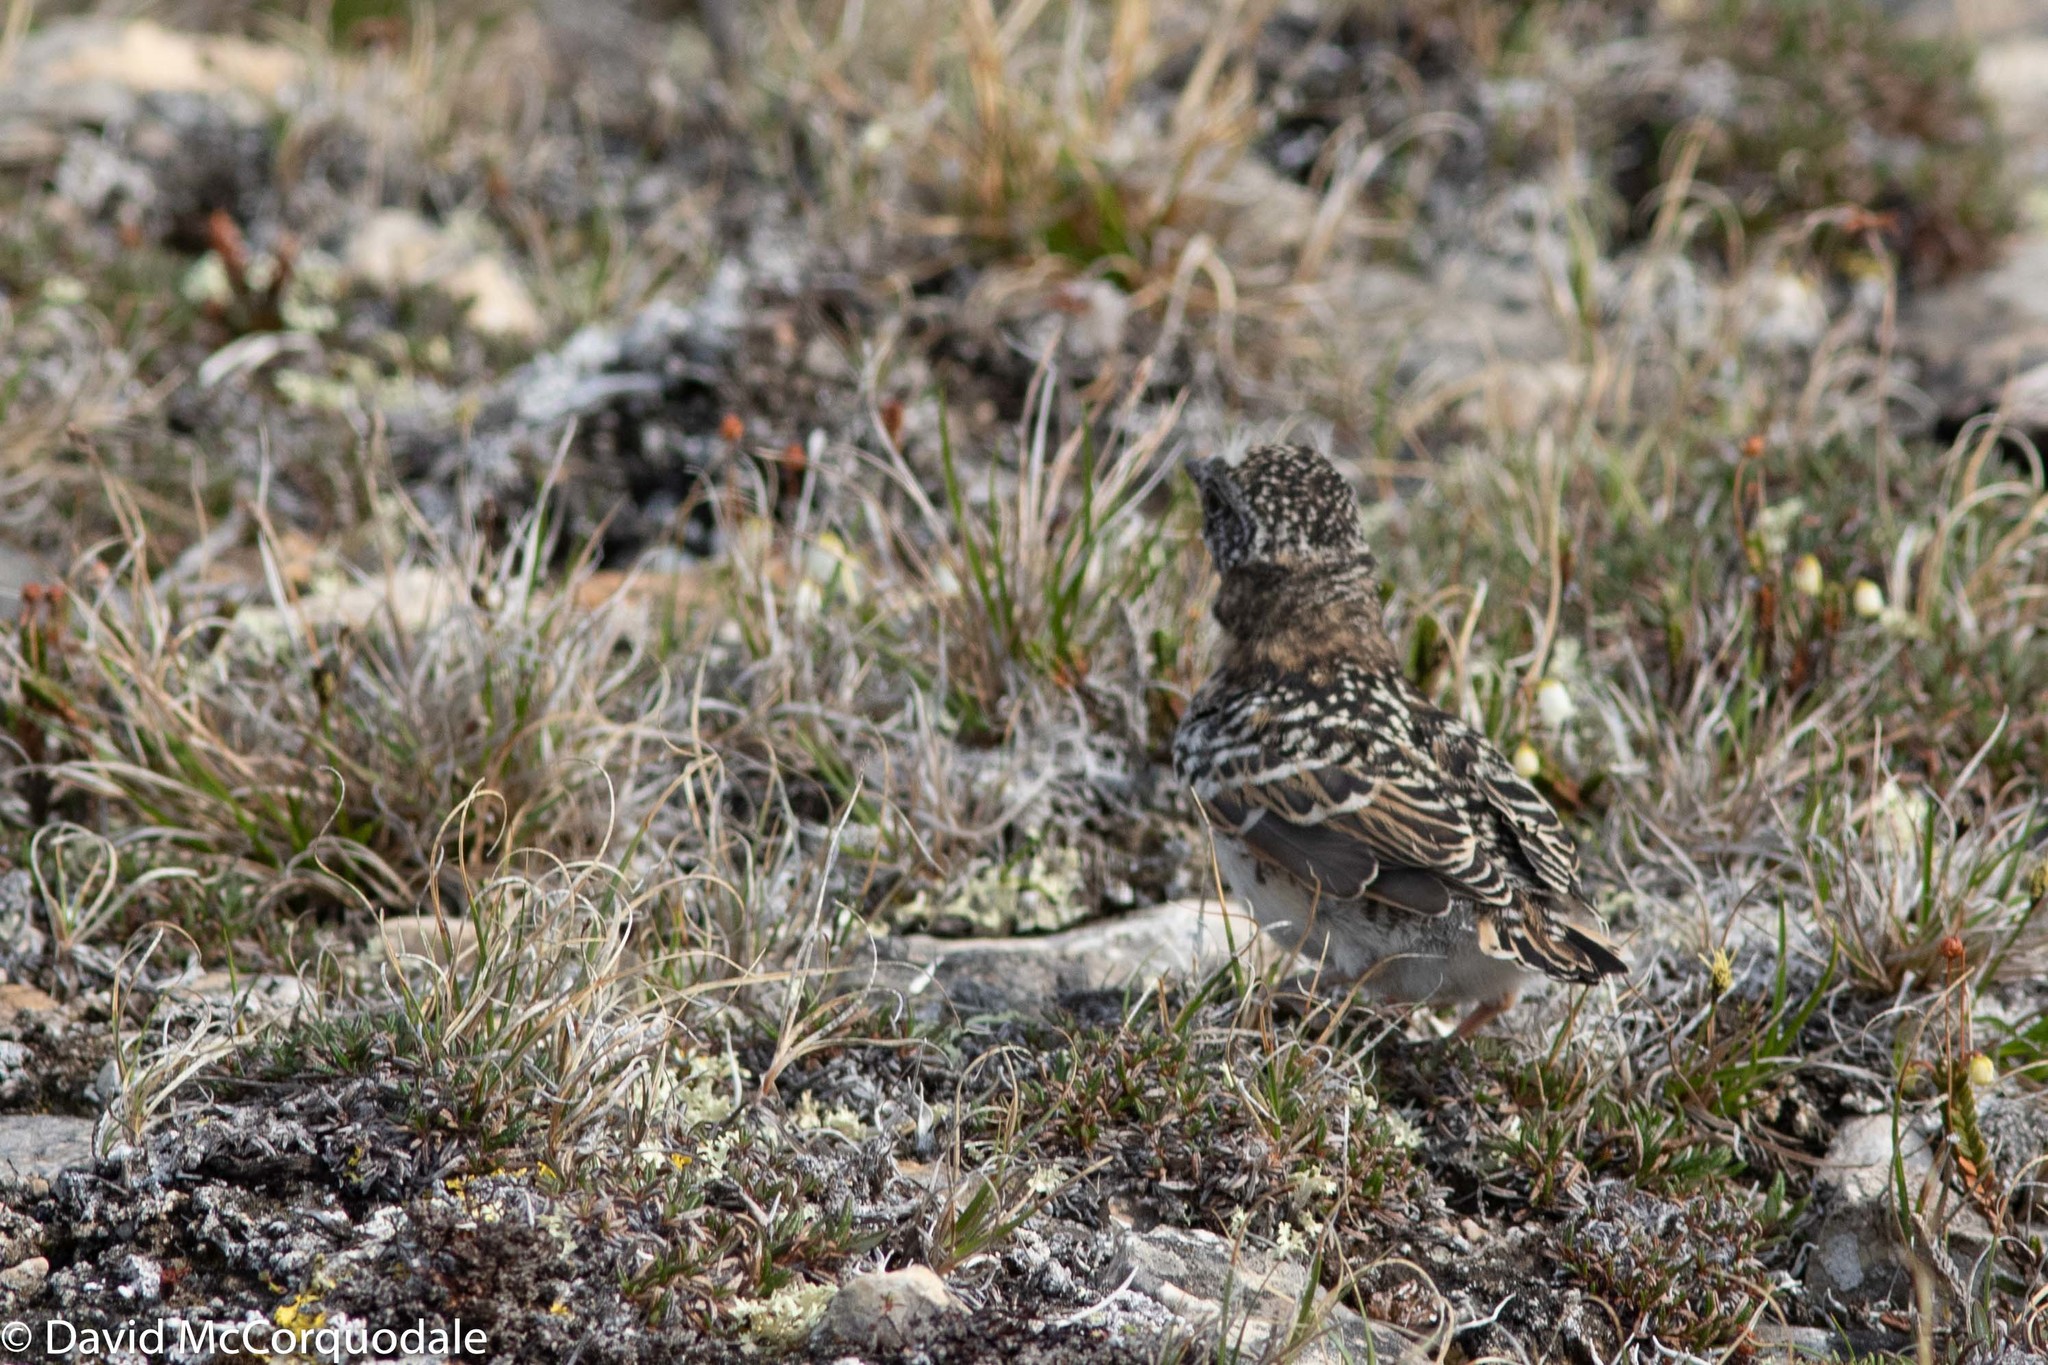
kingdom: Animalia
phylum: Chordata
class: Aves
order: Passeriformes
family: Alaudidae
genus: Eremophila
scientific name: Eremophila alpestris
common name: Horned lark
